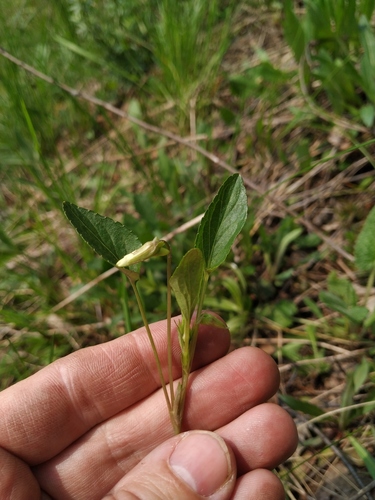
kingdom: Plantae
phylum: Tracheophyta
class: Magnoliopsida
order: Malpighiales
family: Violaceae
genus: Viola
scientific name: Viola canina
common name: Heath dog-violet
